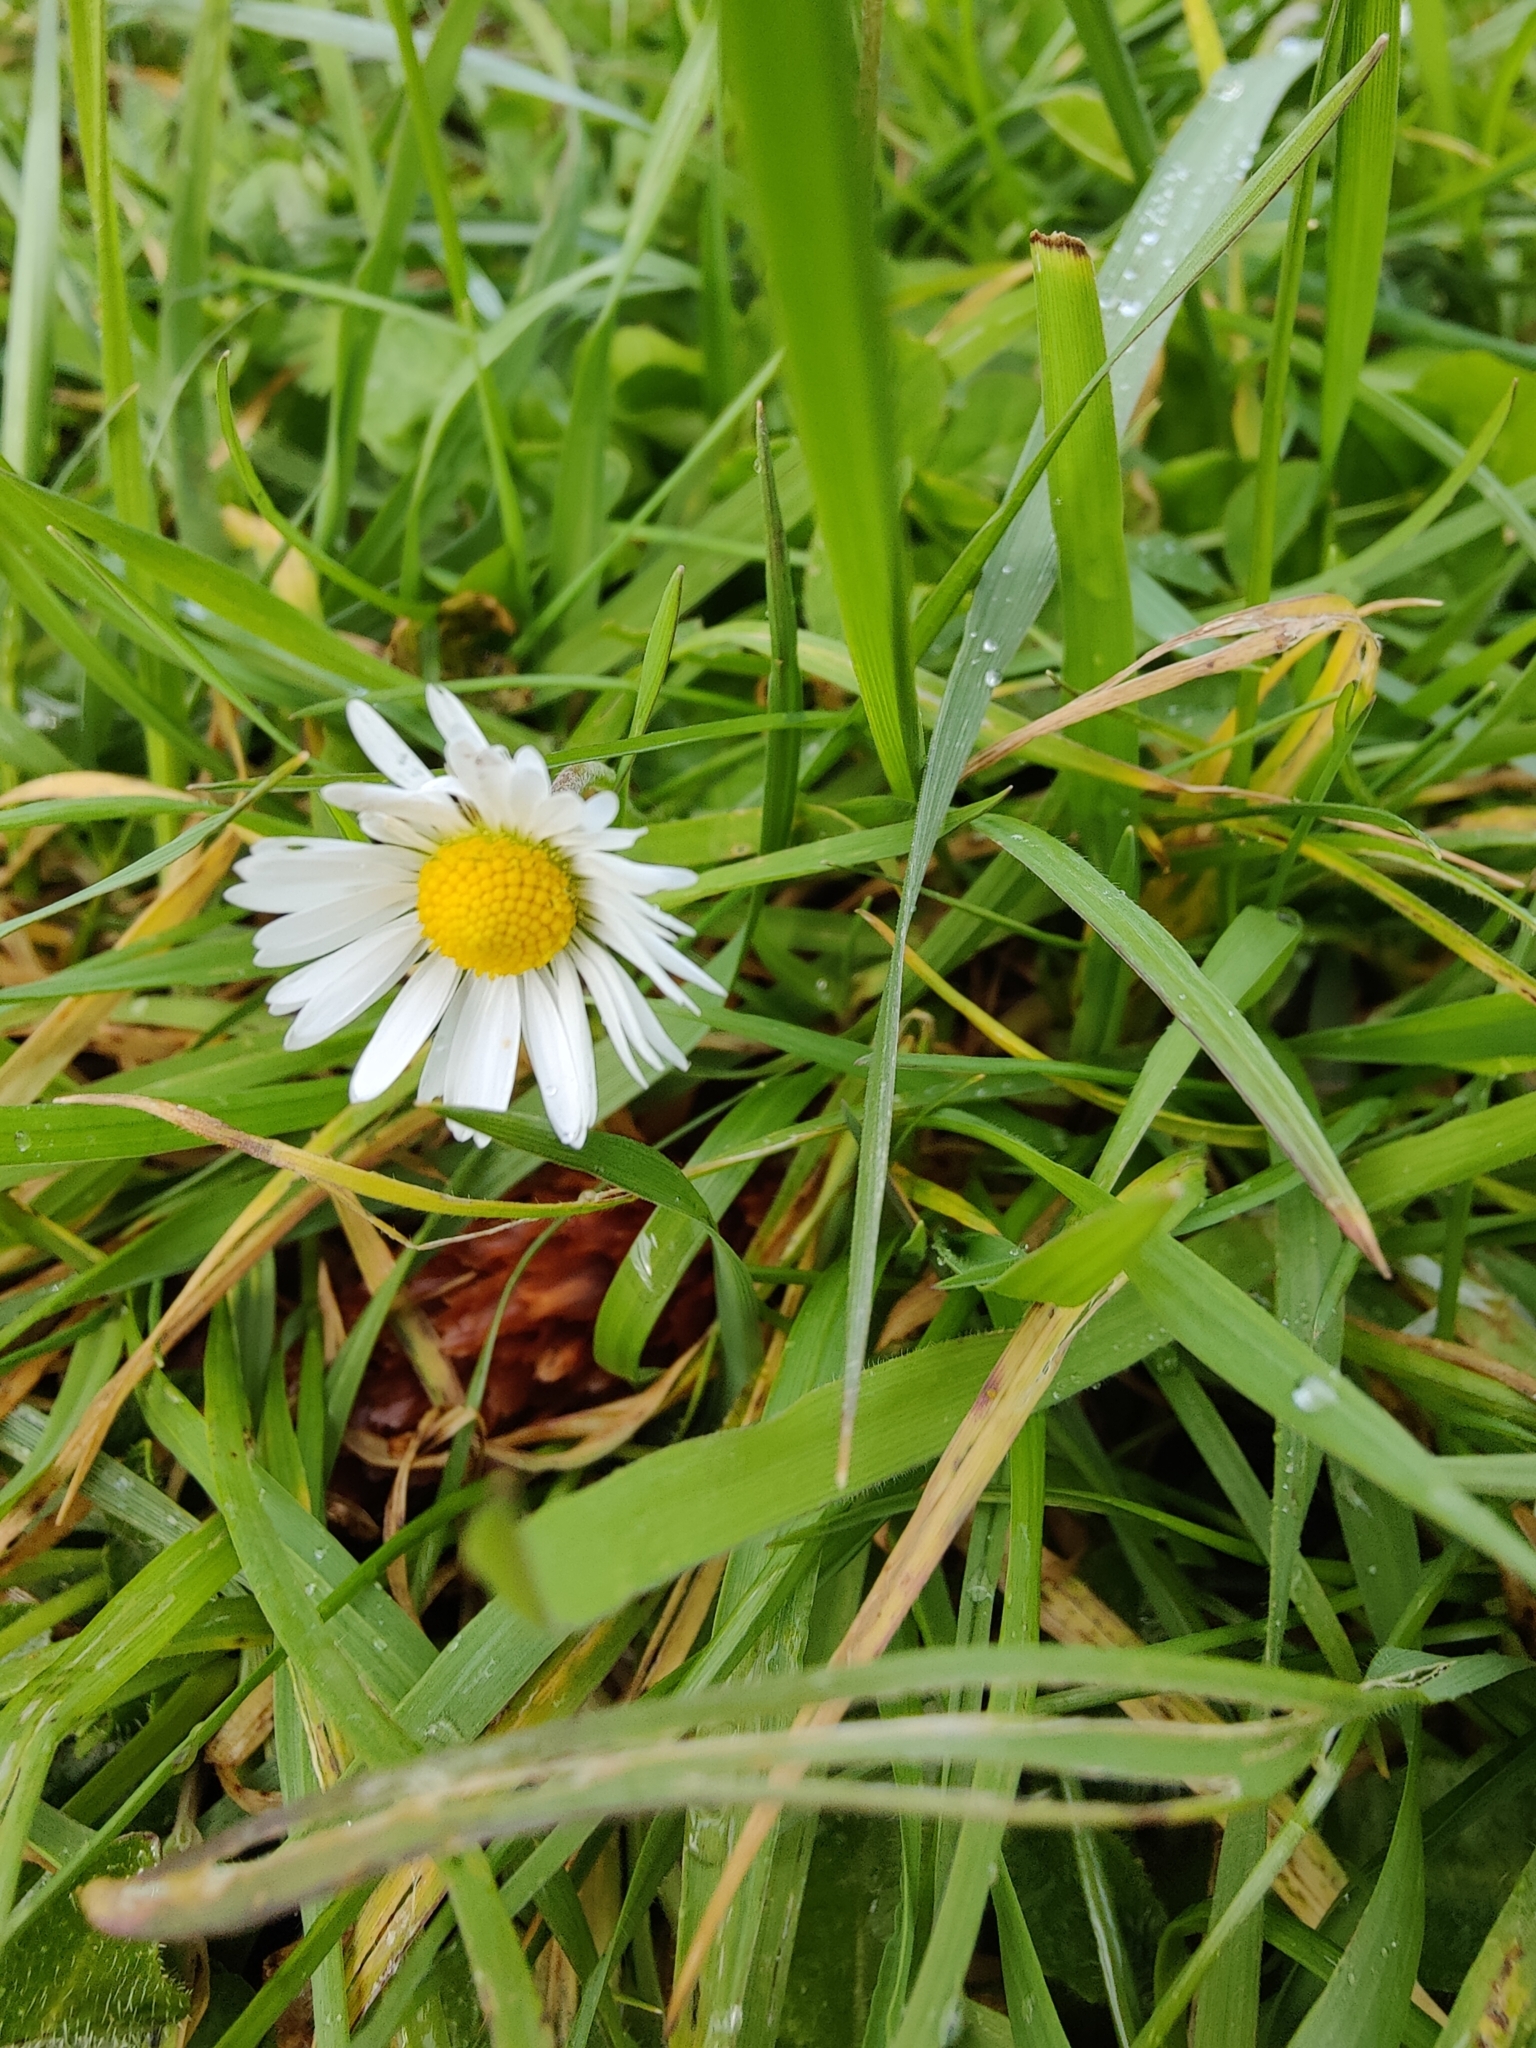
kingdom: Plantae
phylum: Tracheophyta
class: Magnoliopsida
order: Asterales
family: Asteraceae
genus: Bellis
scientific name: Bellis perennis
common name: Lawndaisy
